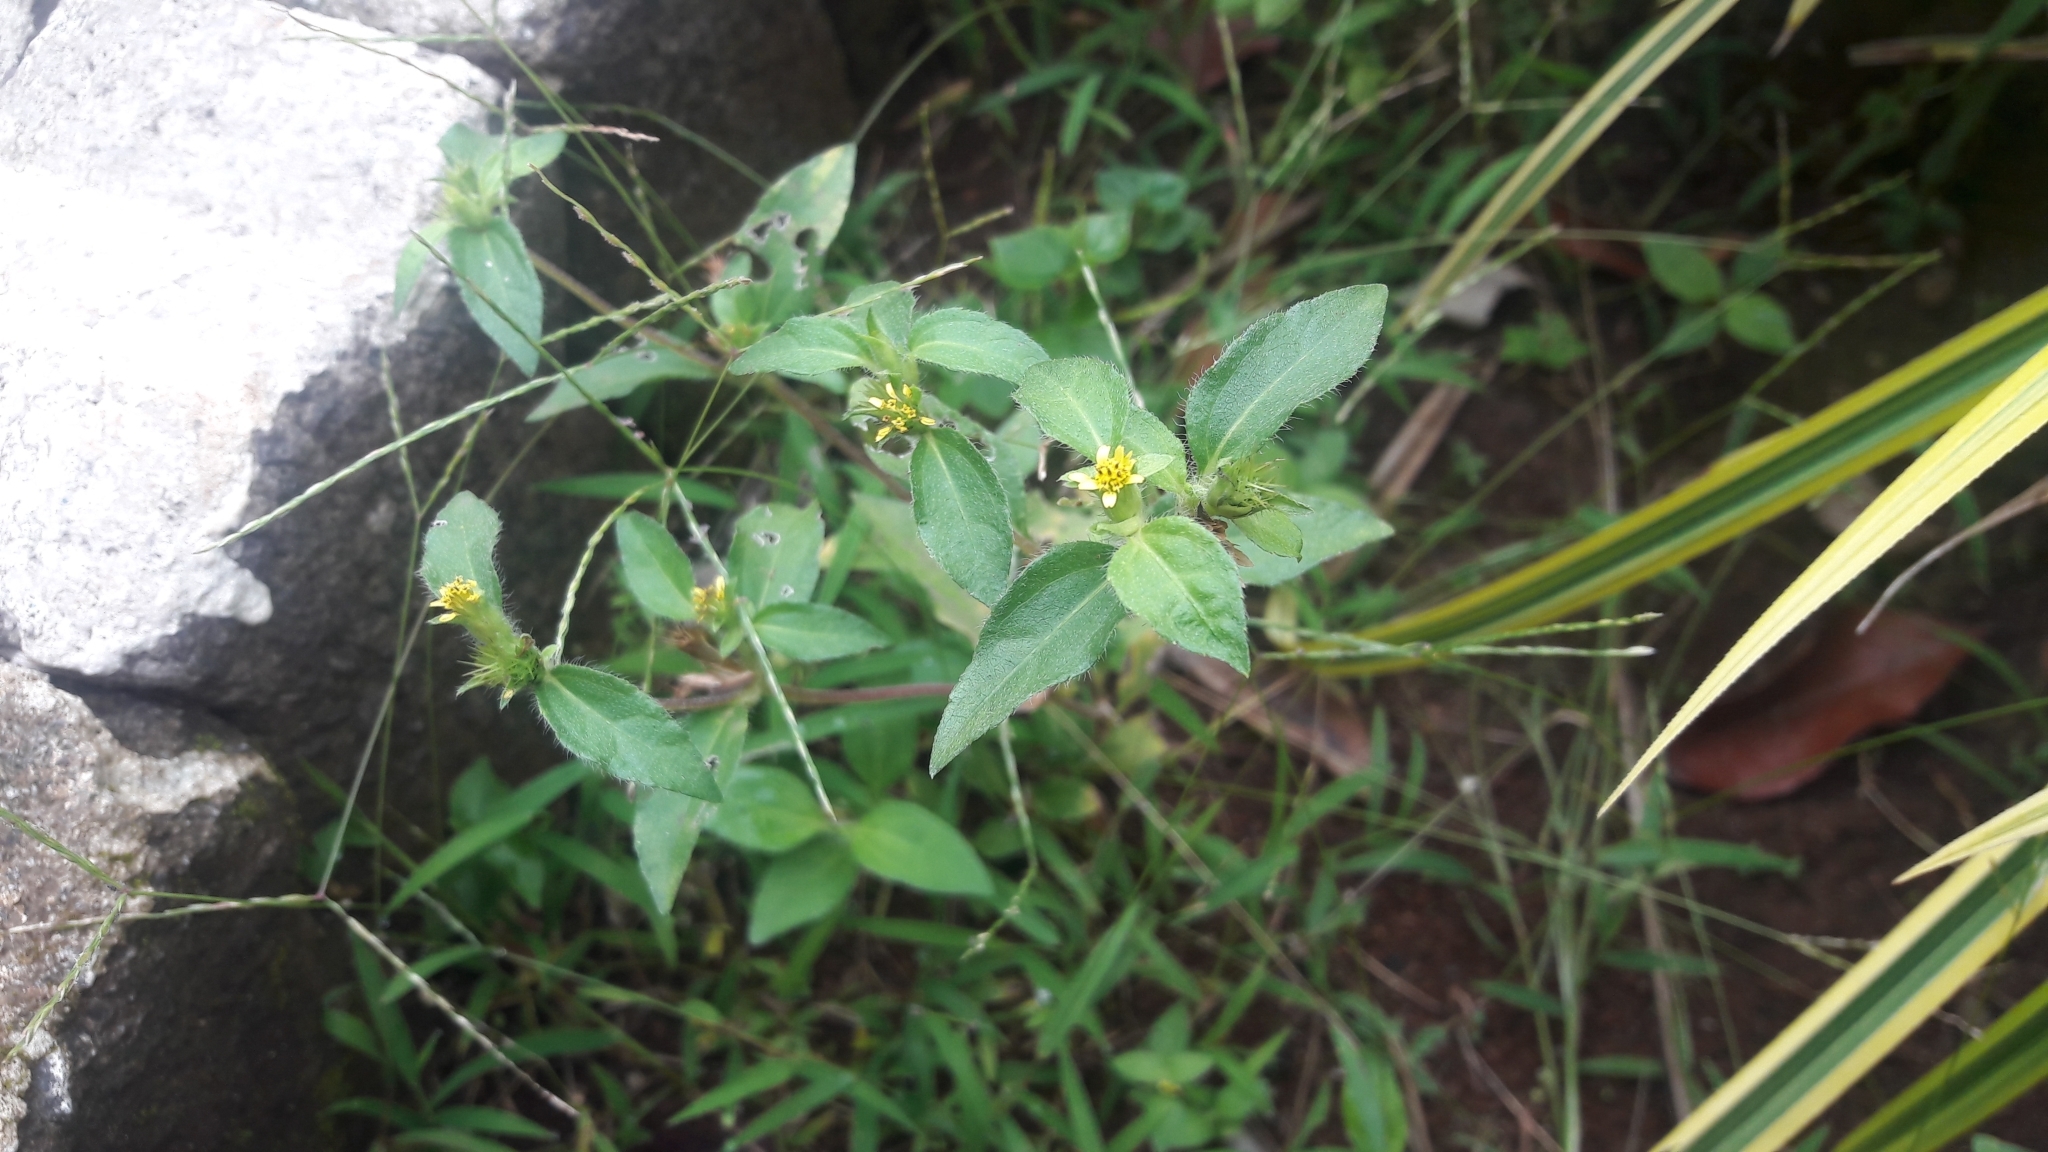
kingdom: Plantae
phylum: Tracheophyta
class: Magnoliopsida
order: Asterales
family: Asteraceae
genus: Synedrella
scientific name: Synedrella nodiflora
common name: Nodeweed
